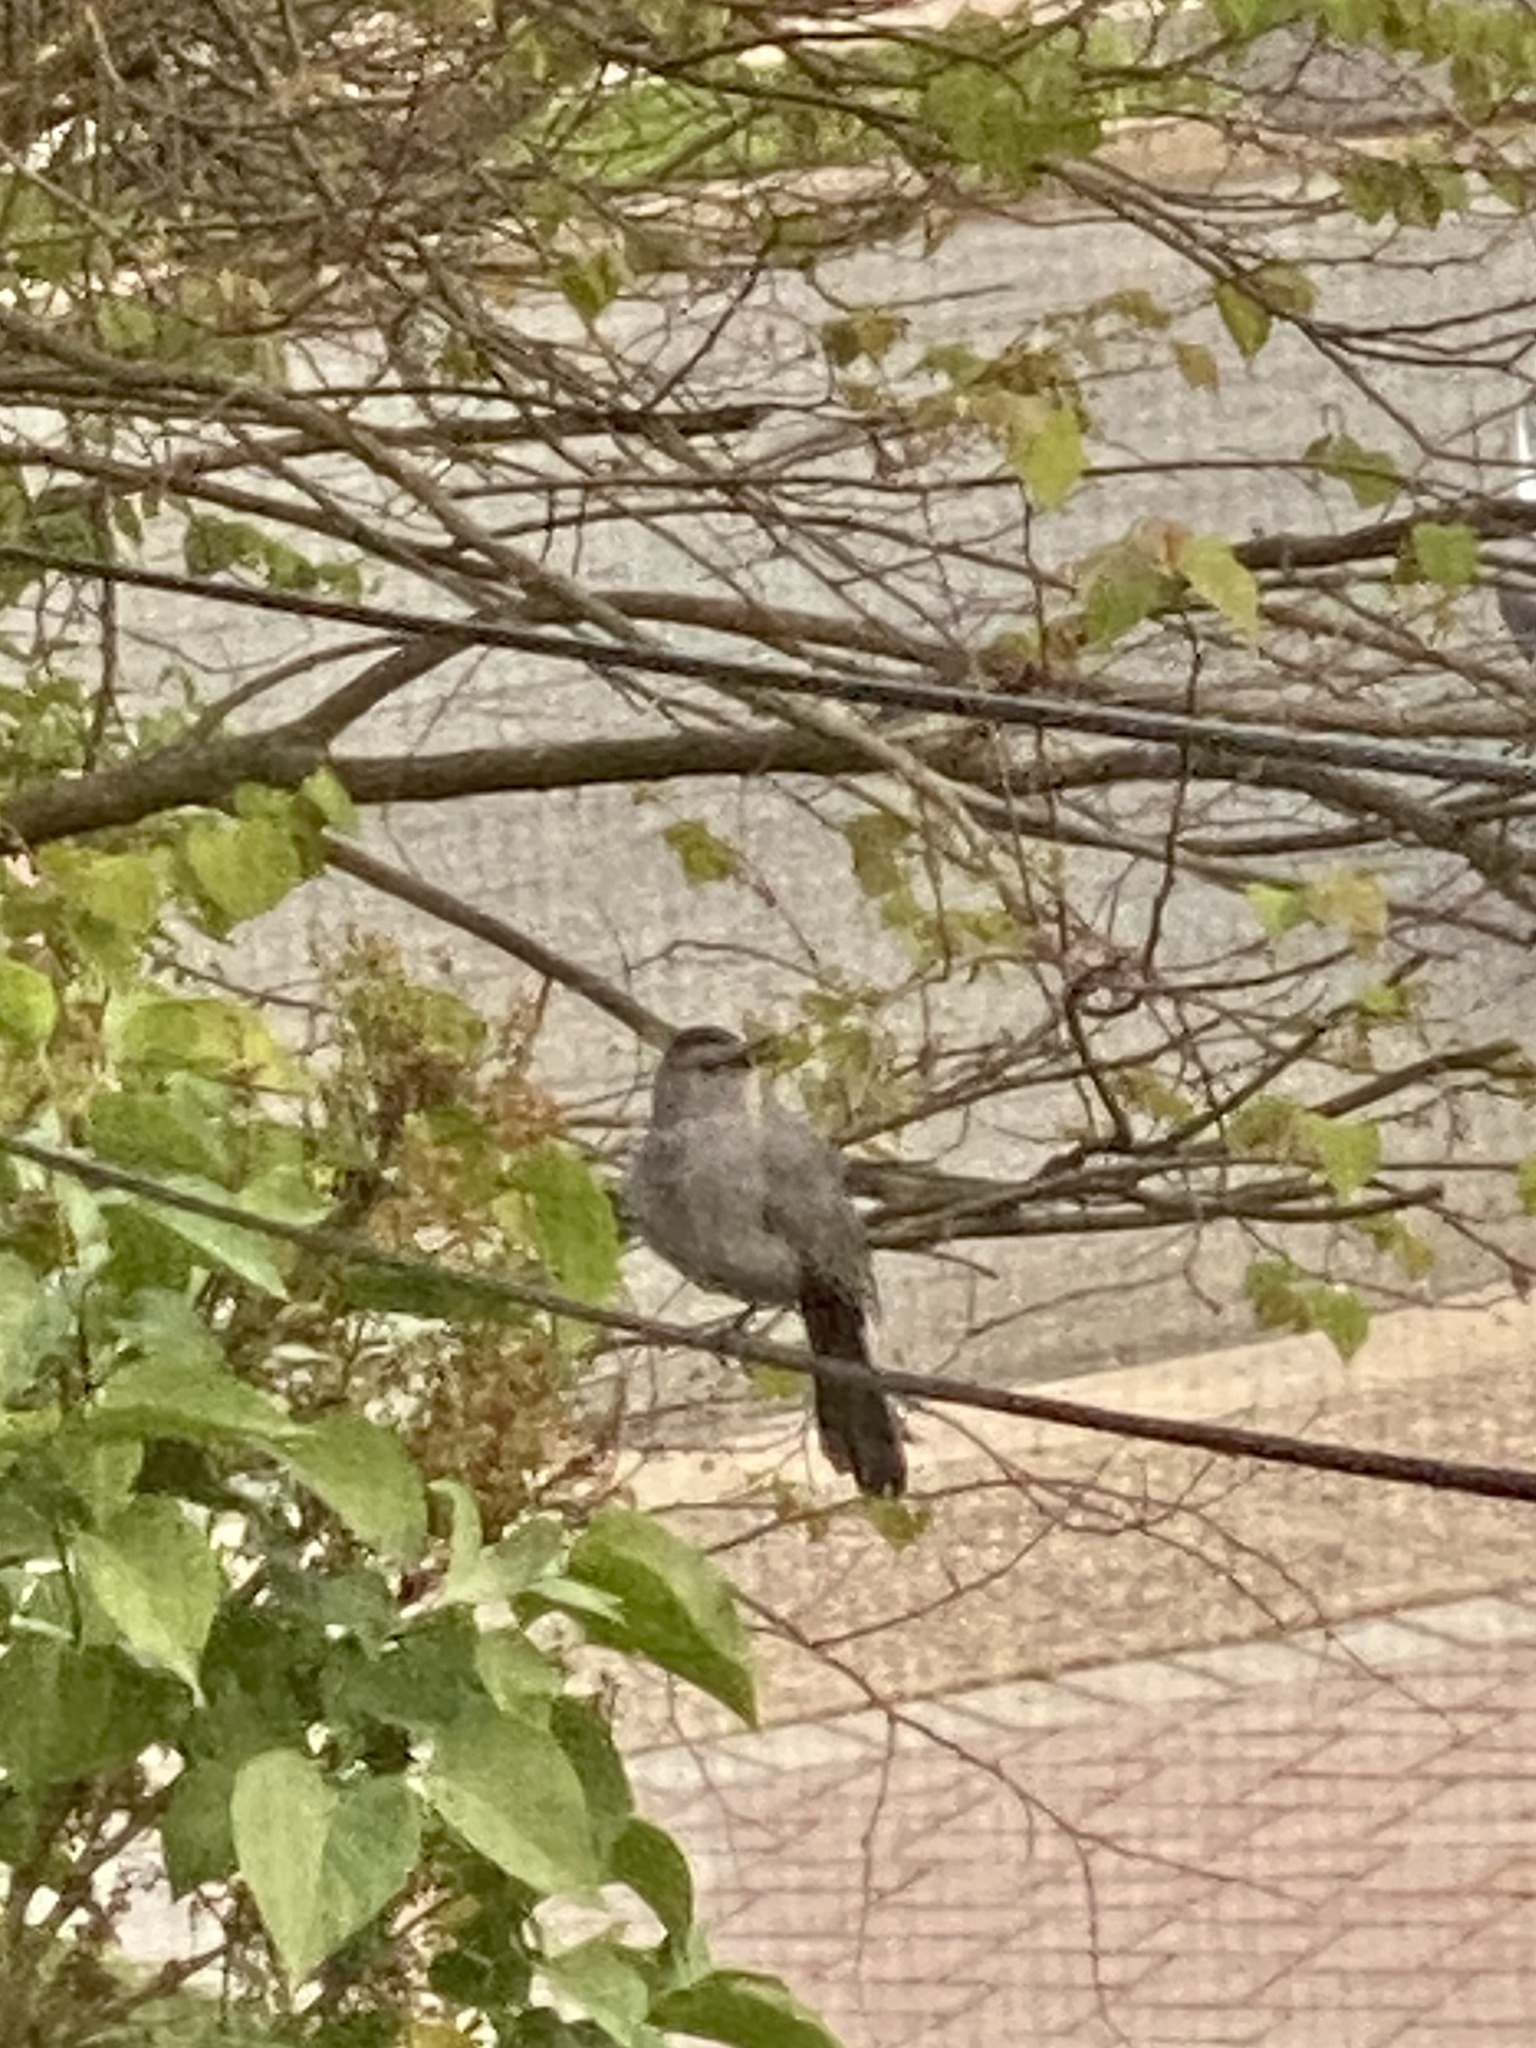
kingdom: Animalia
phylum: Chordata
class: Aves
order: Passeriformes
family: Mimidae
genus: Dumetella
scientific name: Dumetella carolinensis
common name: Gray catbird
